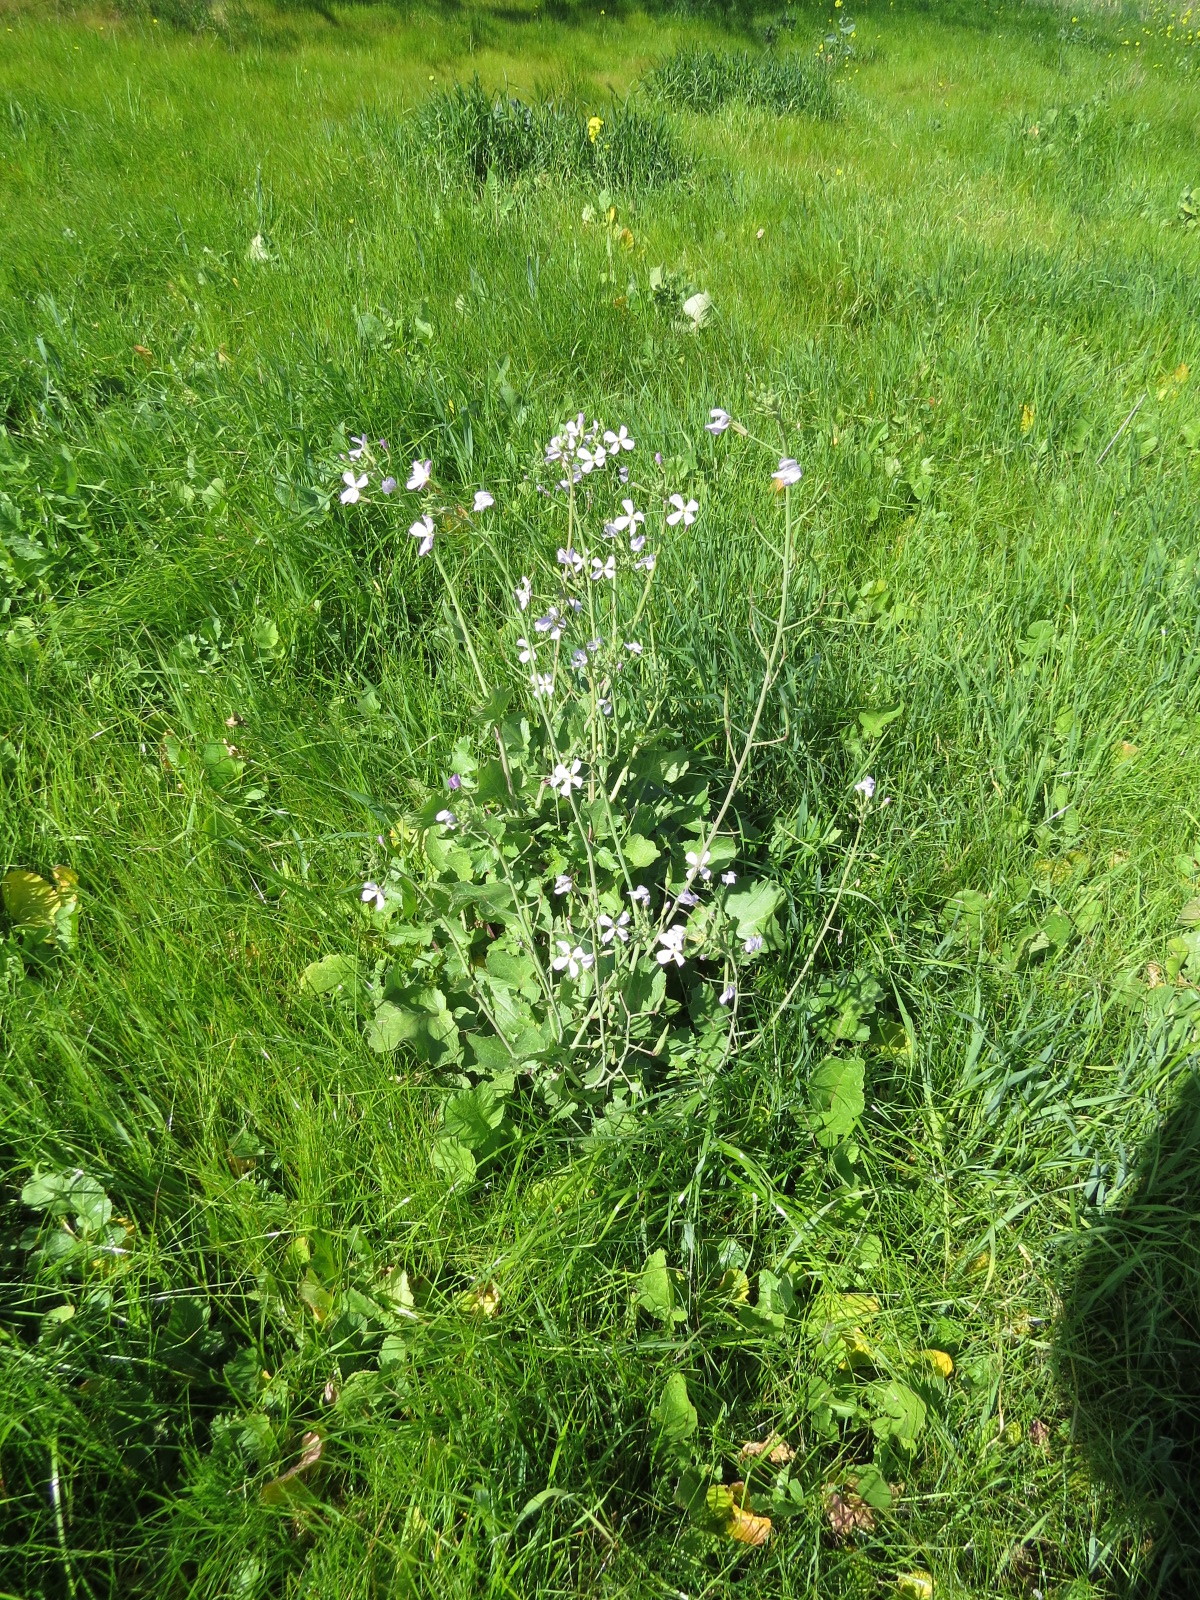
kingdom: Plantae
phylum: Tracheophyta
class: Magnoliopsida
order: Brassicales
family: Brassicaceae
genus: Raphanus
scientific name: Raphanus sativus
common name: Cultivated radish
